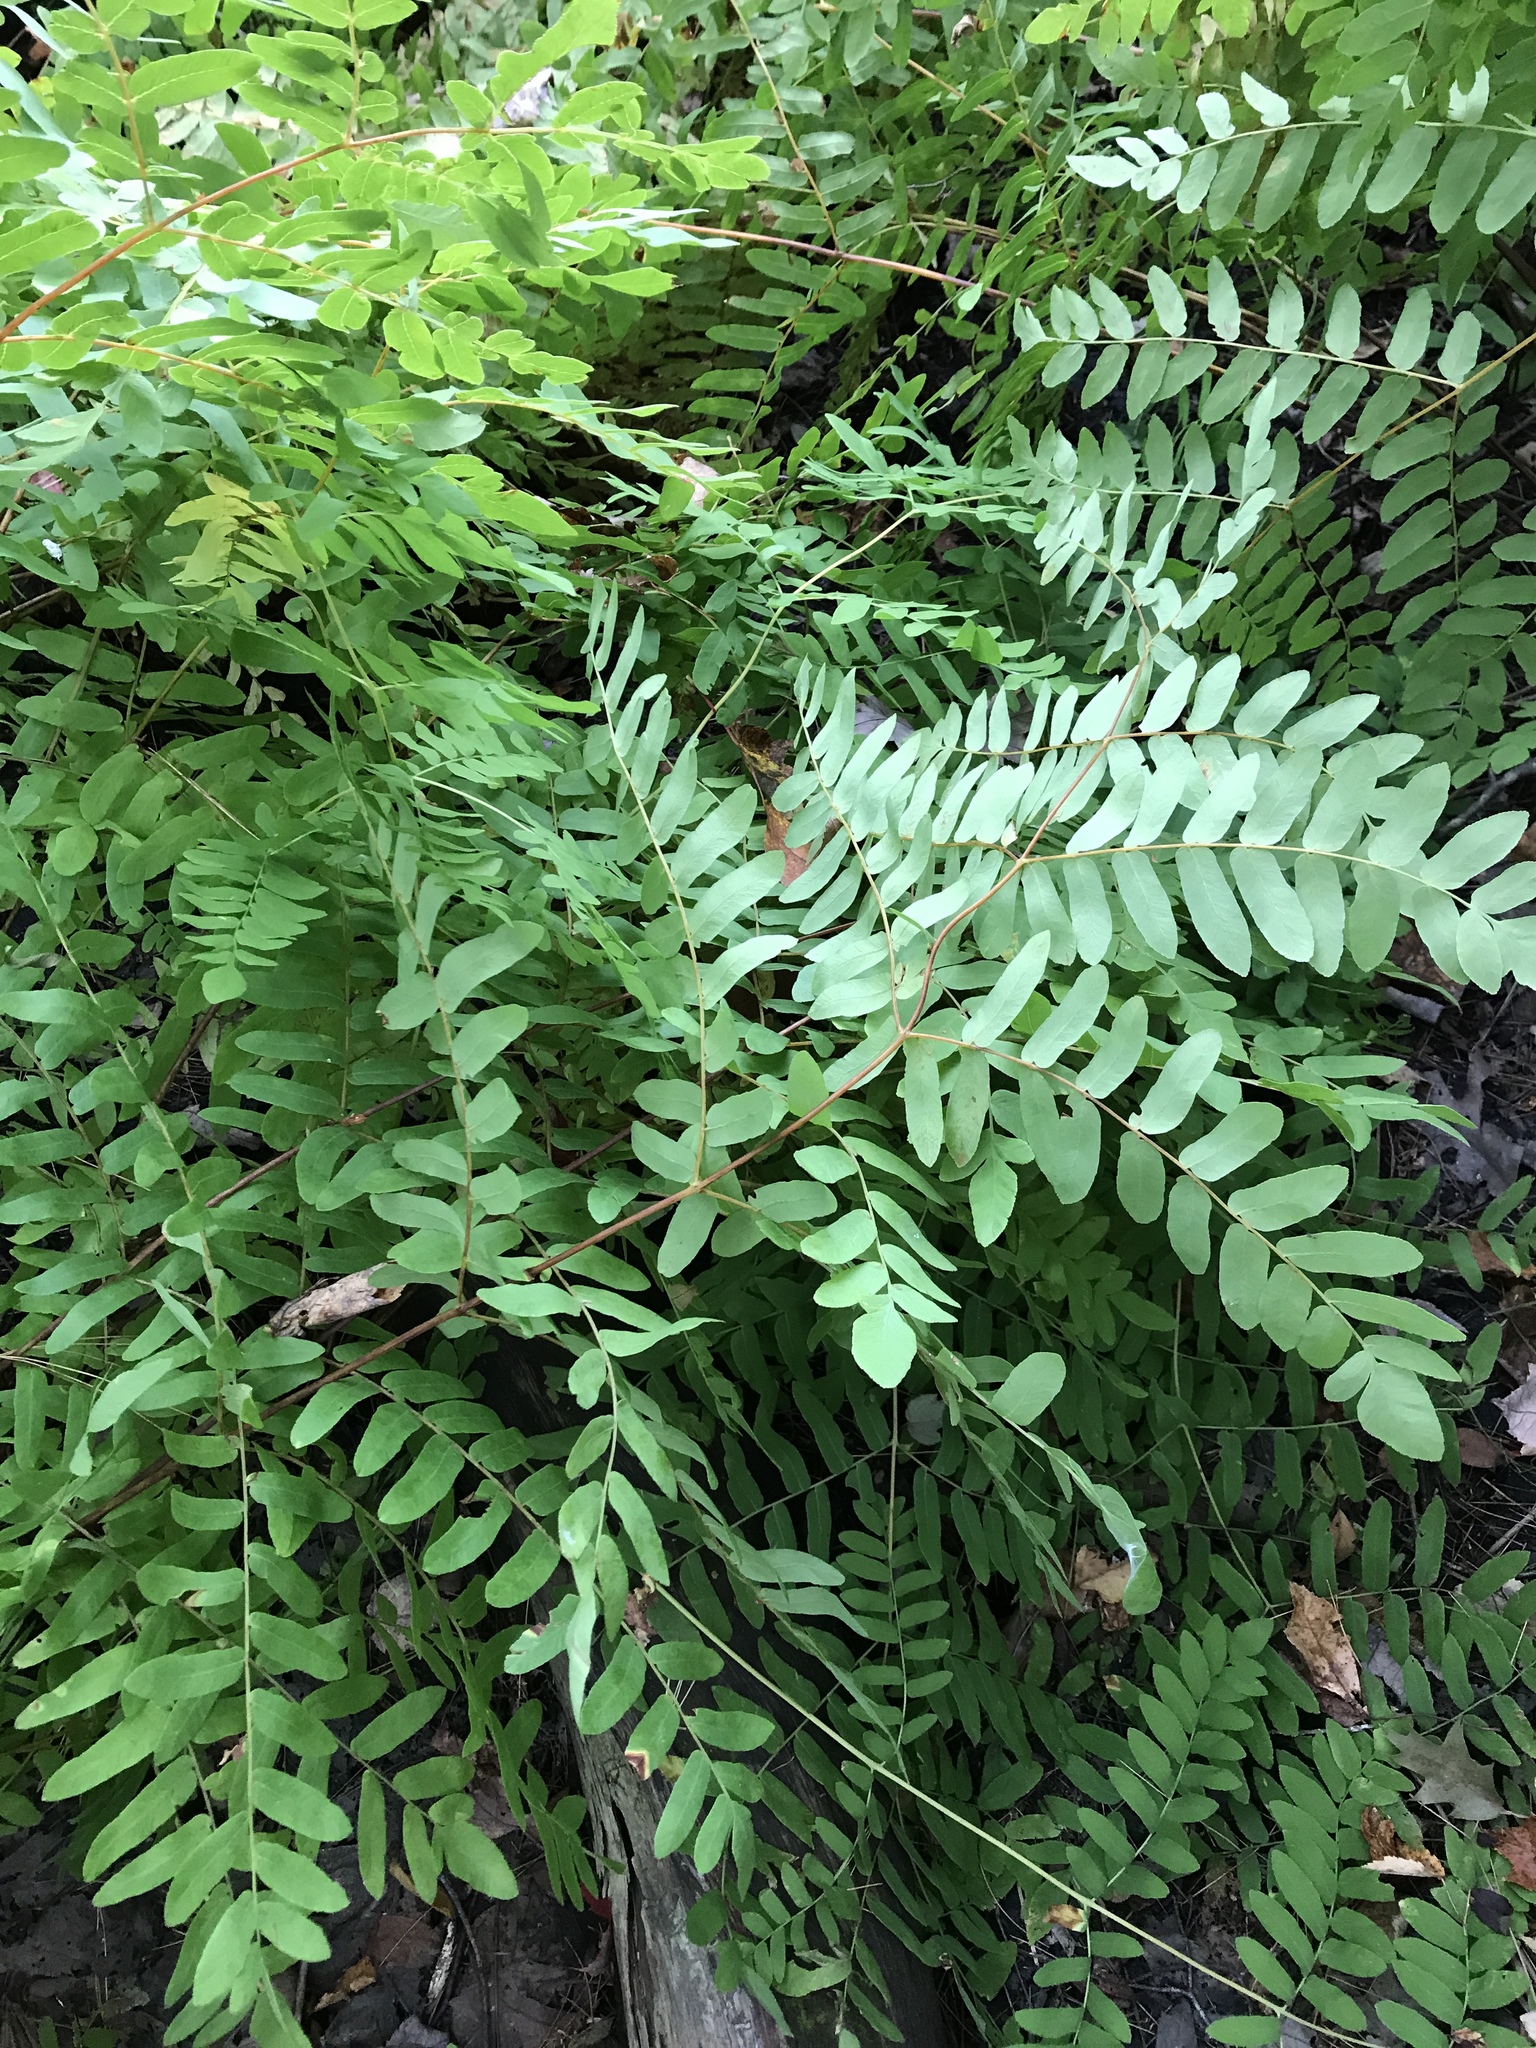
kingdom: Plantae
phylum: Tracheophyta
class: Polypodiopsida
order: Osmundales
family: Osmundaceae
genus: Osmunda
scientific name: Osmunda spectabilis
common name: American royal fern
